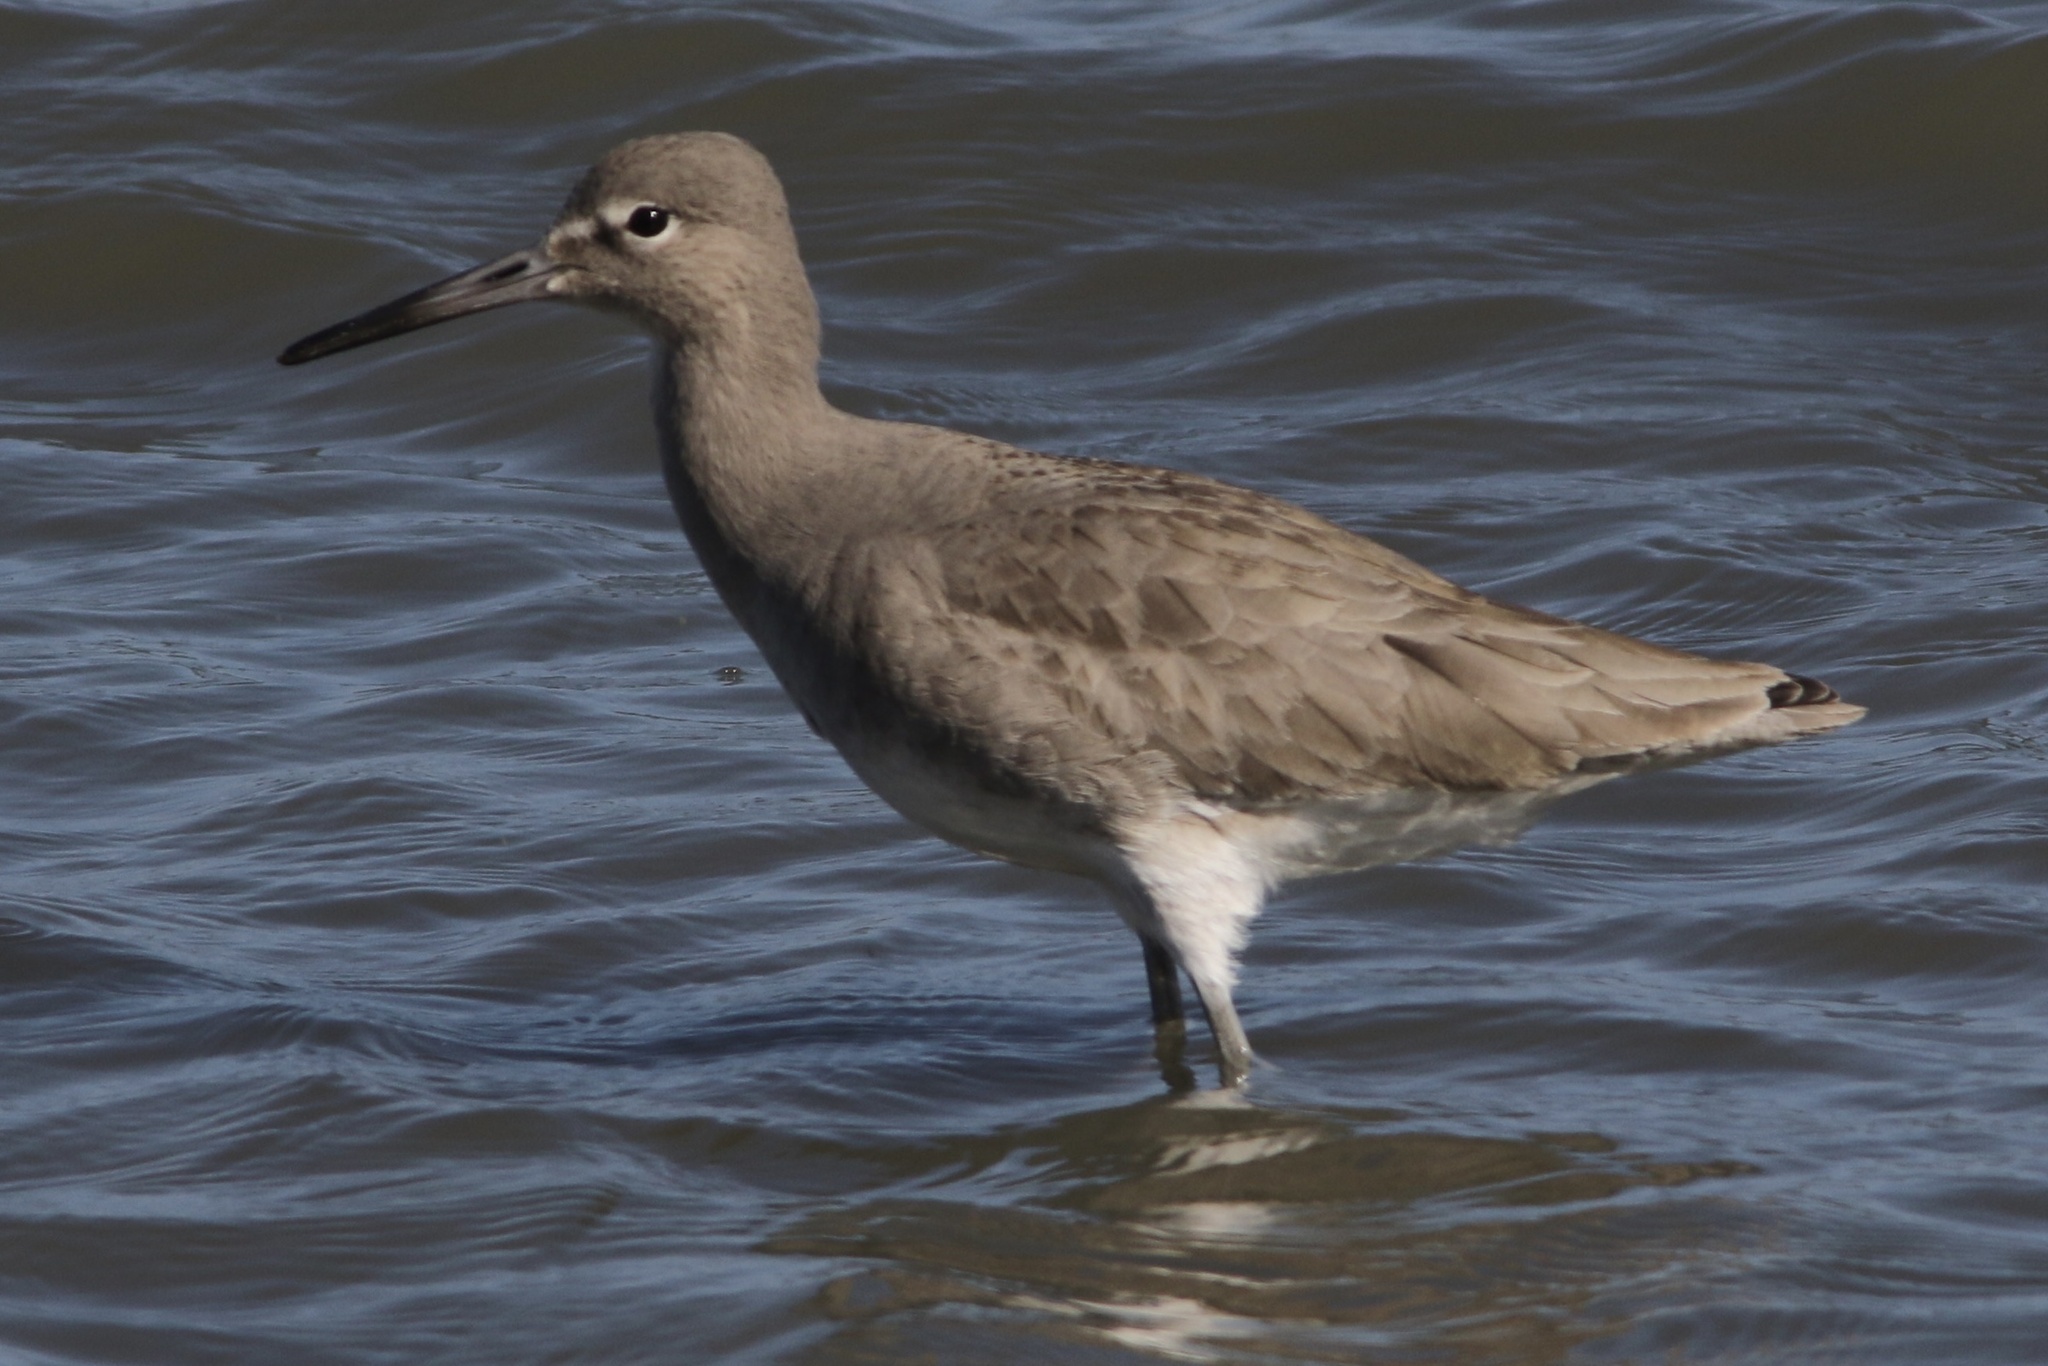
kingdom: Animalia
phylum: Chordata
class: Aves
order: Charadriiformes
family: Scolopacidae
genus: Tringa
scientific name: Tringa semipalmata
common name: Willet
